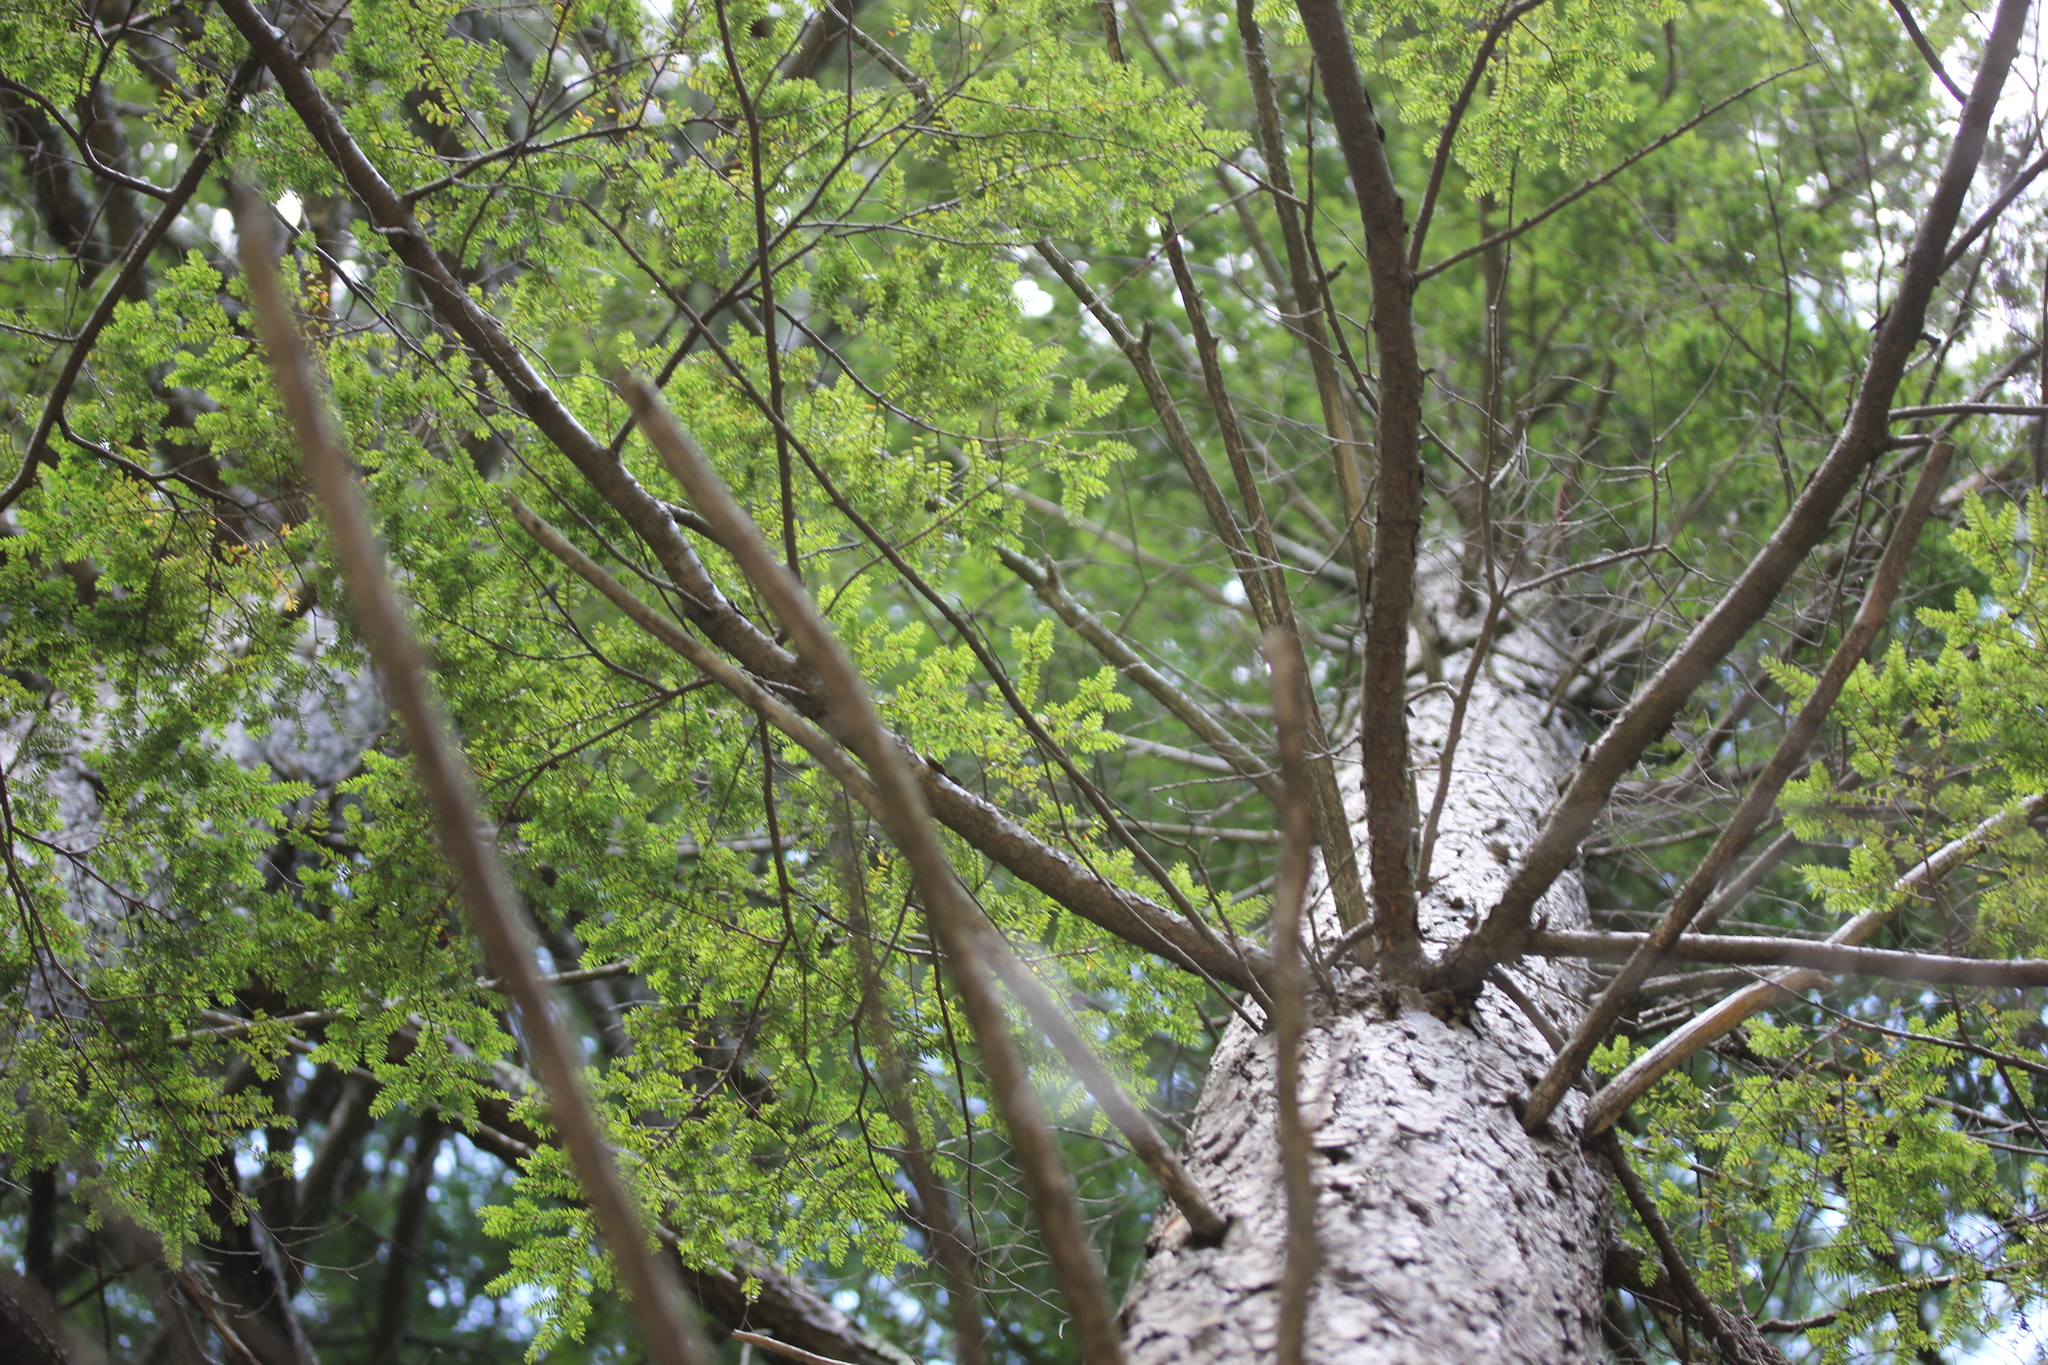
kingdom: Plantae
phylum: Tracheophyta
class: Pinopsida
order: Pinales
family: Pinaceae
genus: Tsuga
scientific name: Tsuga canadensis
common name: Eastern hemlock
